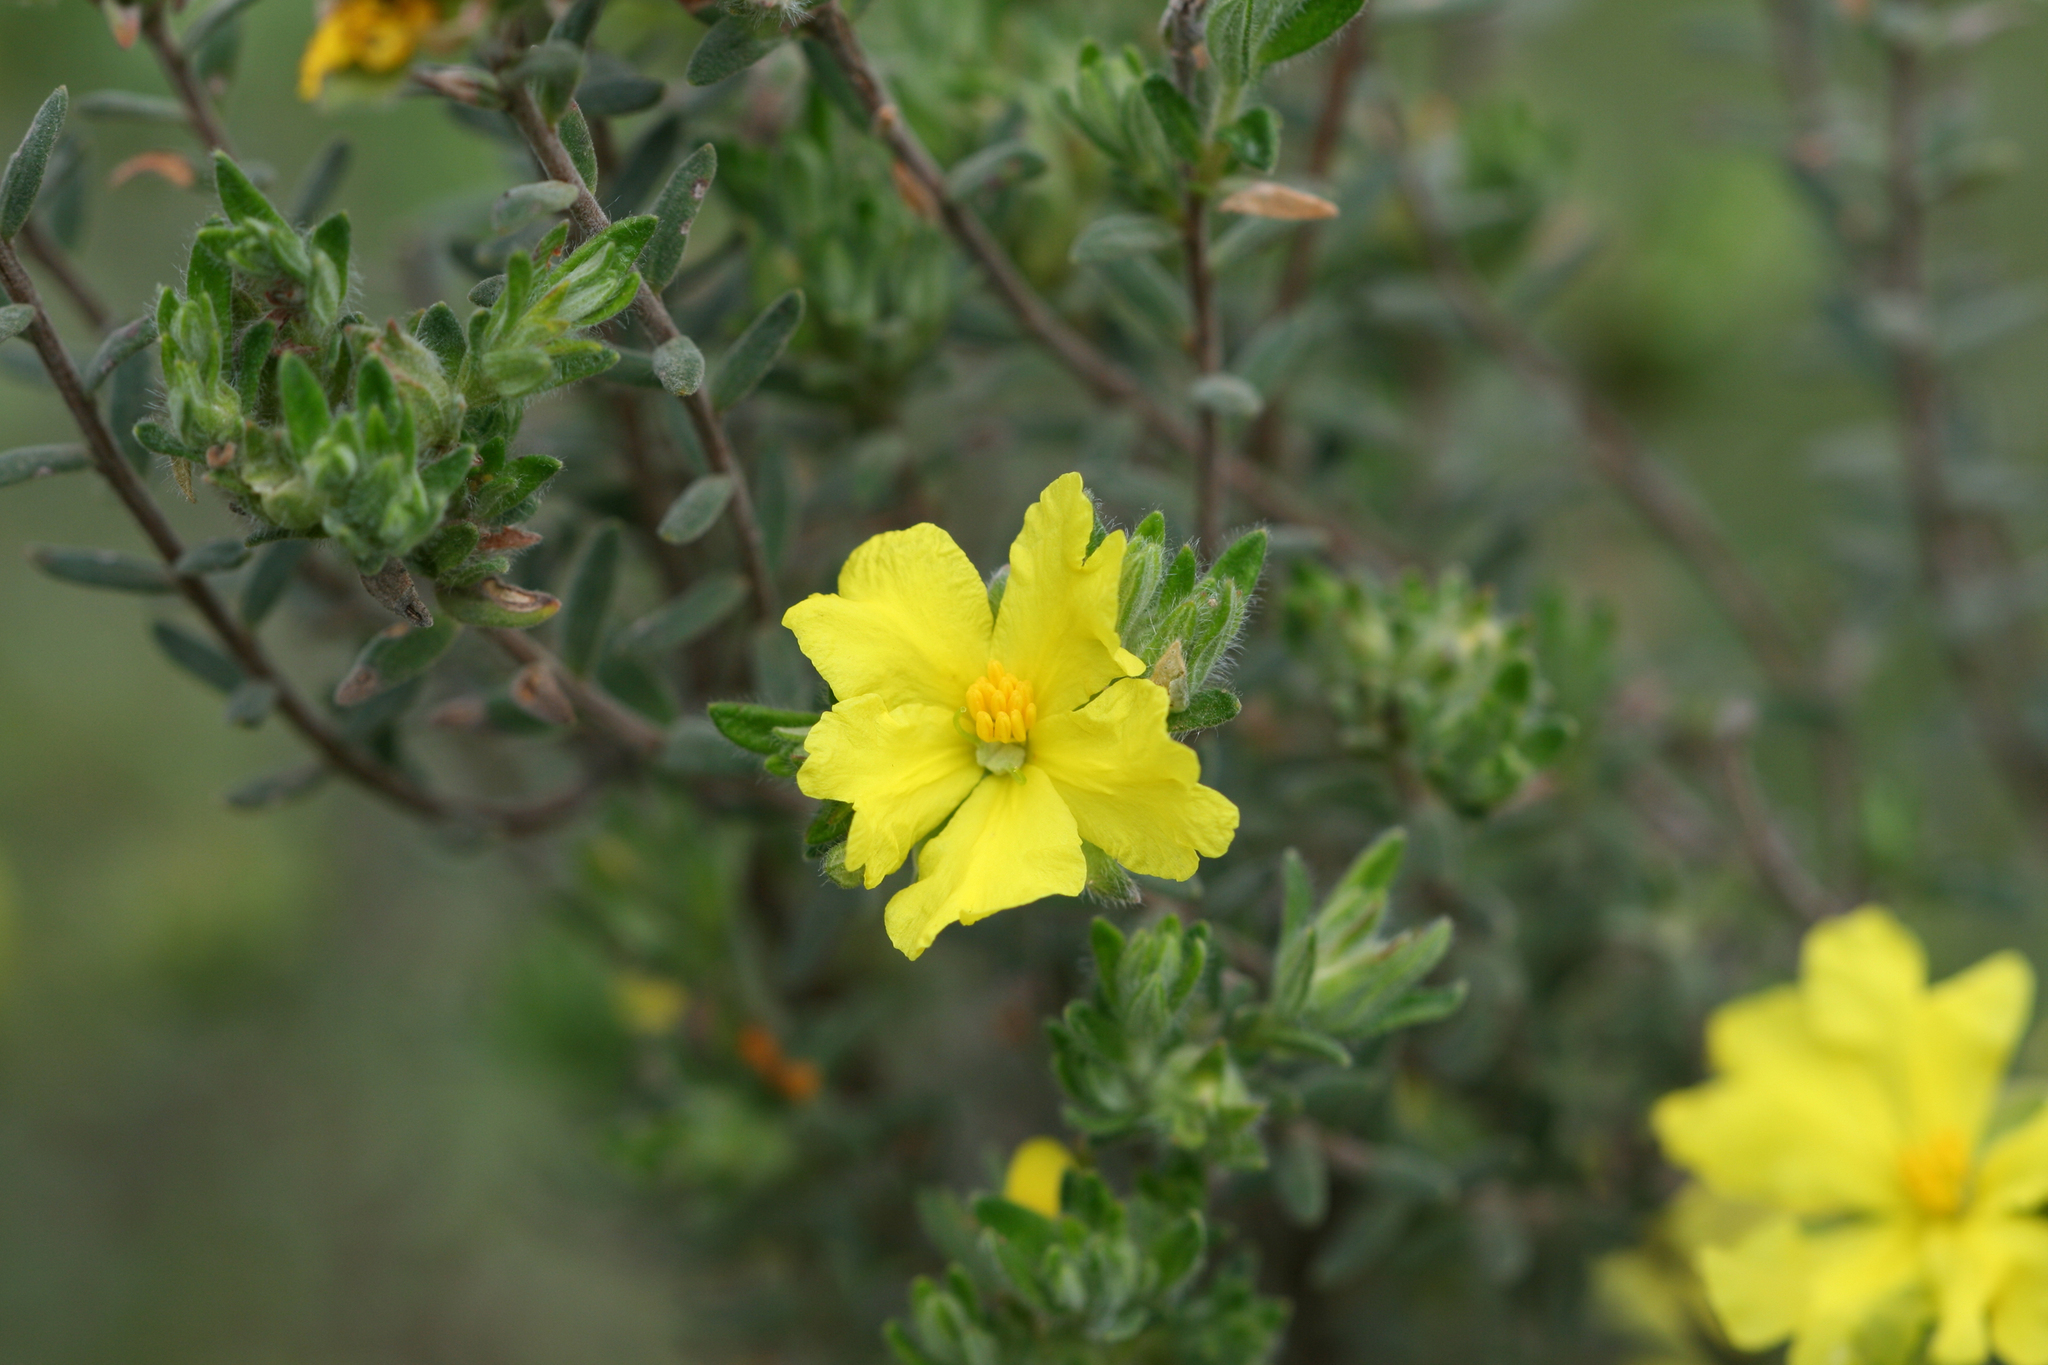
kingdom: Plantae
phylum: Tracheophyta
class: Magnoliopsida
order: Dilleniales
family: Dilleniaceae
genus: Hibbertia
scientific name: Hibbertia crinita
